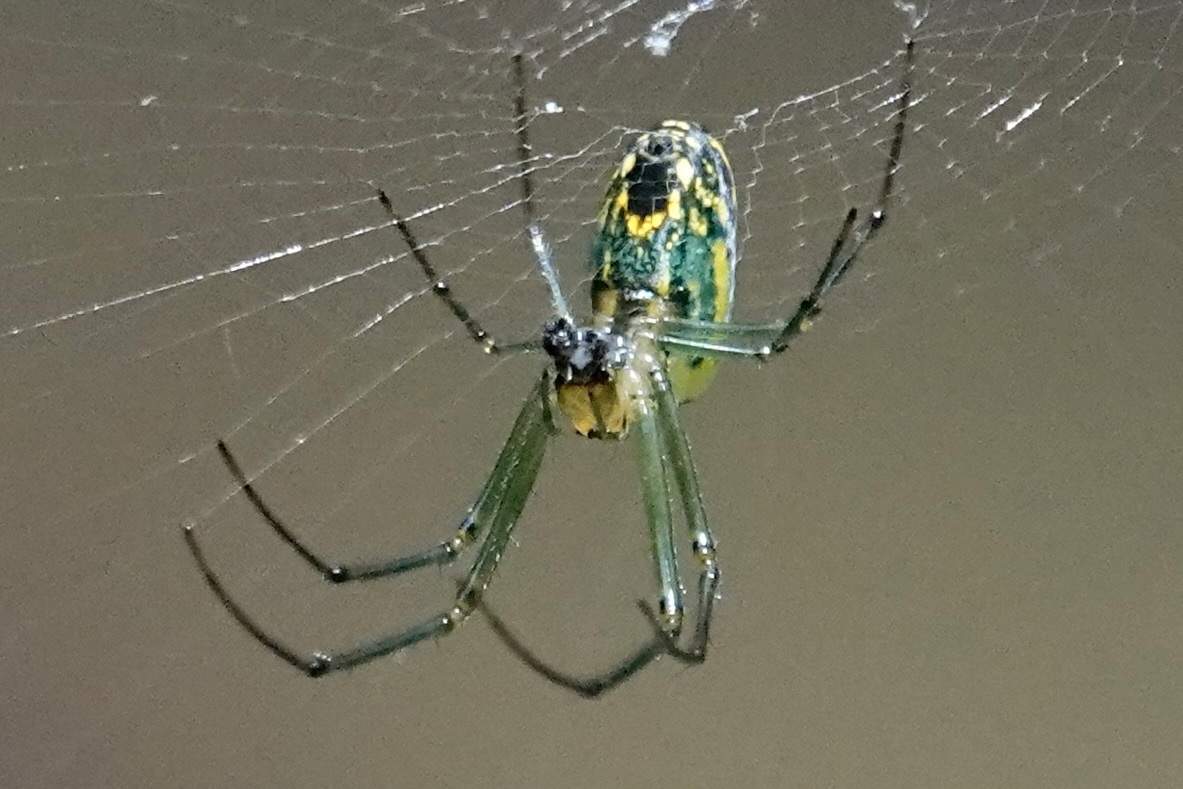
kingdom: Animalia
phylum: Arthropoda
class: Arachnida
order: Araneae
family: Tetragnathidae
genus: Leucauge
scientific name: Leucauge venusta
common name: Longjawed orb weavers
